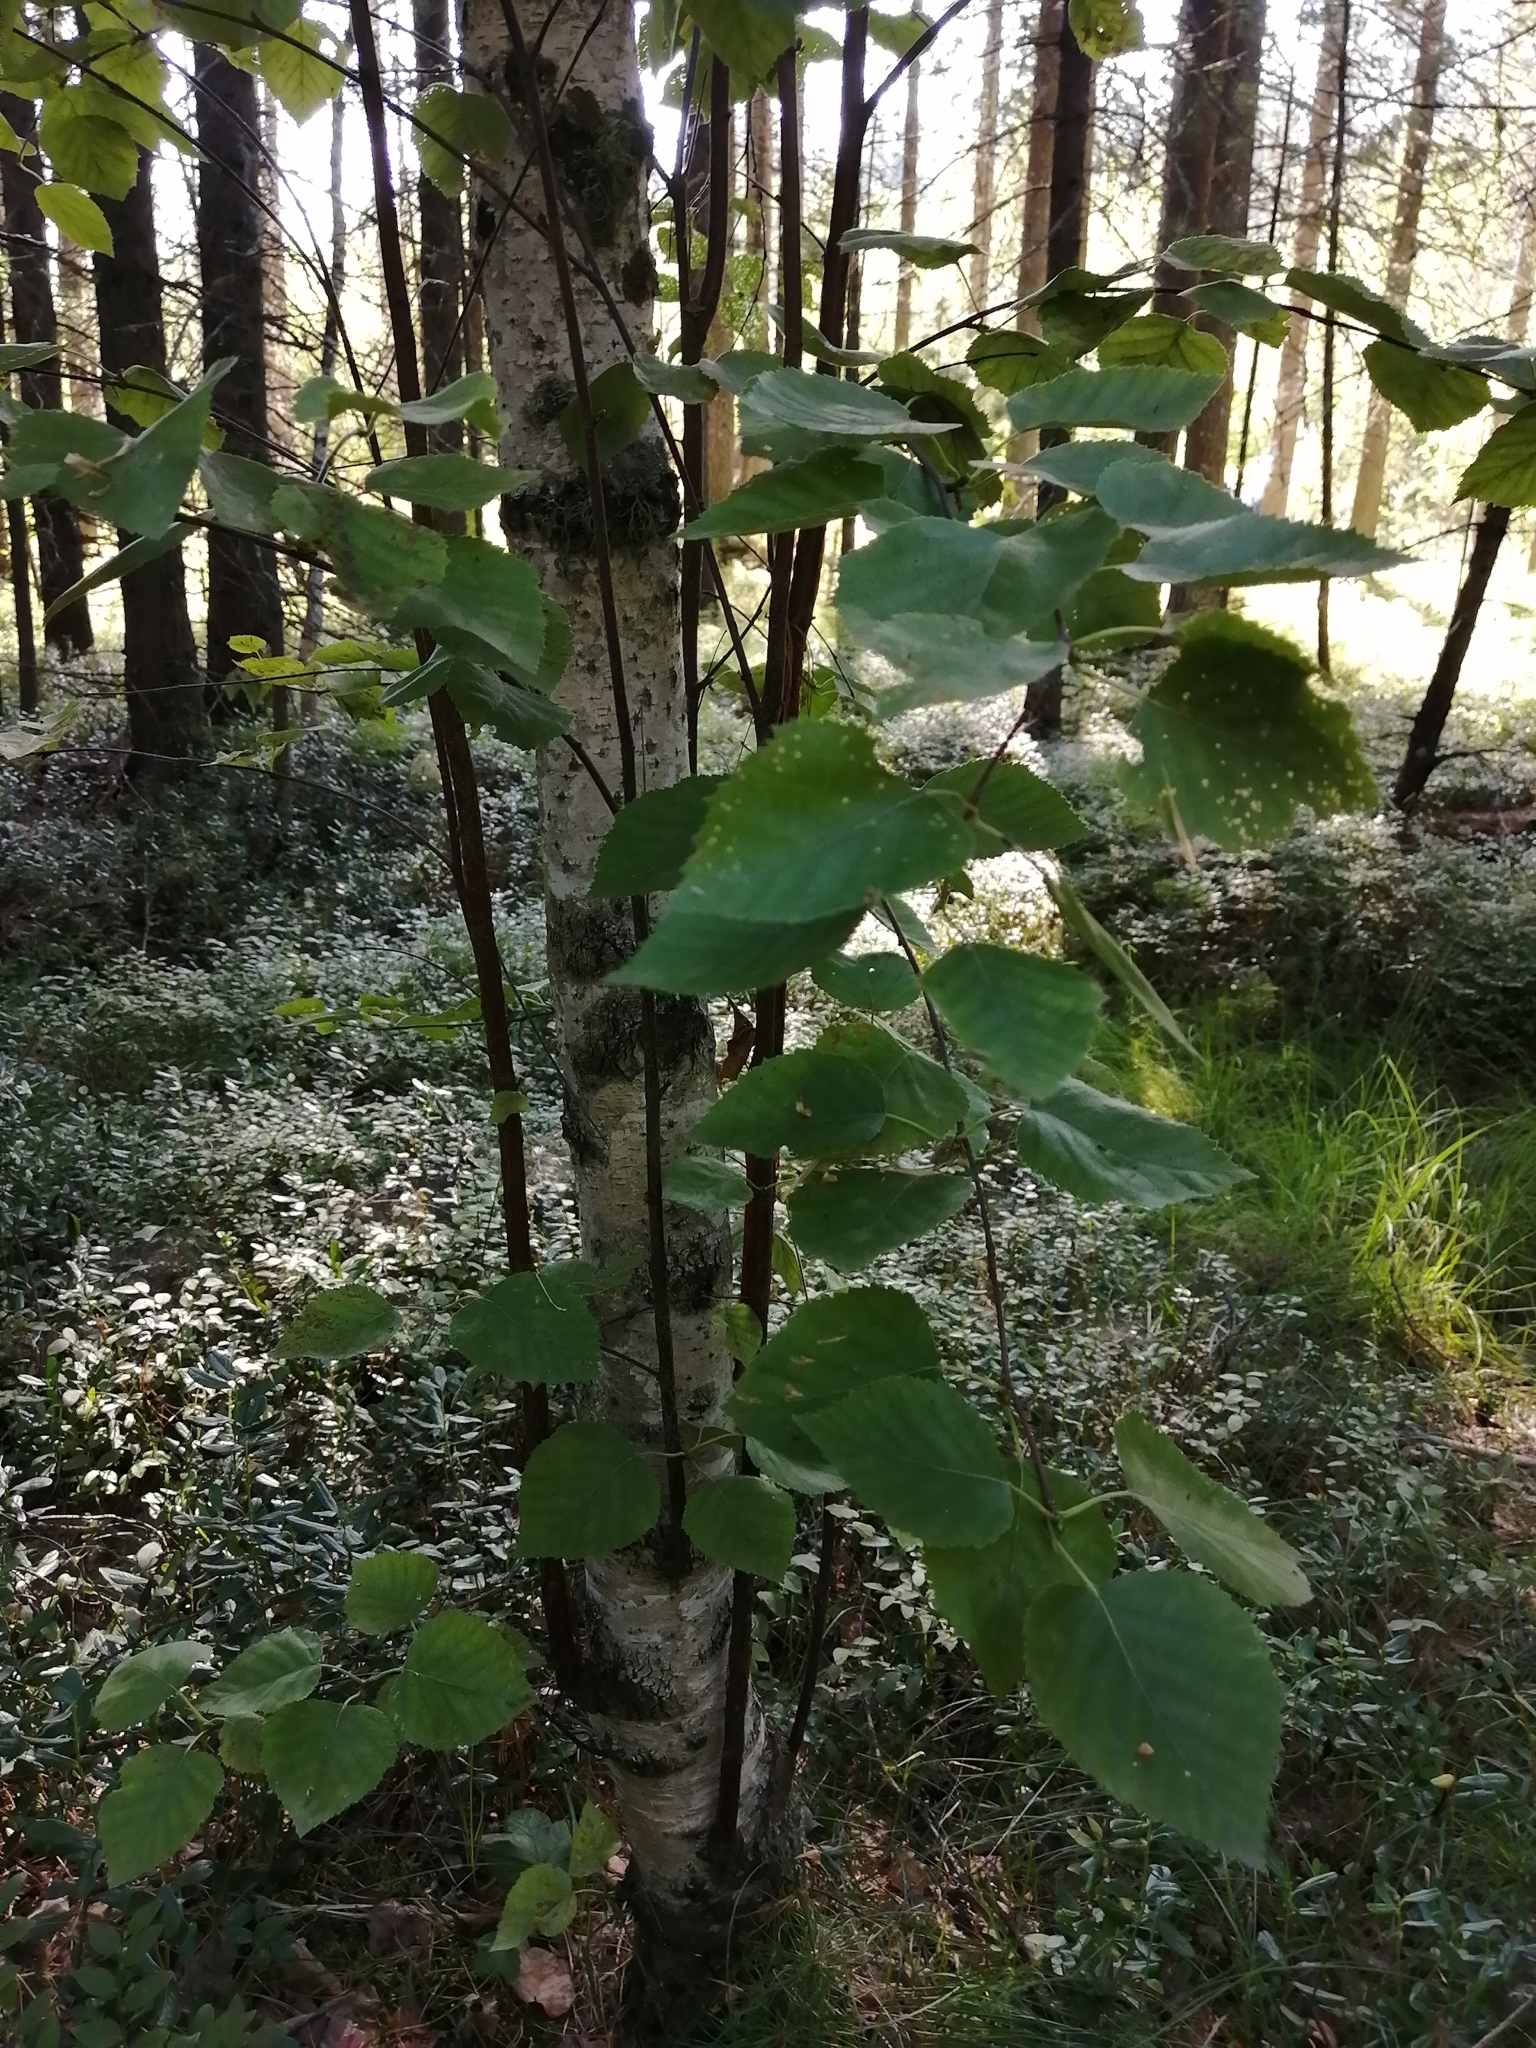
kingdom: Plantae
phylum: Tracheophyta
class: Magnoliopsida
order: Fagales
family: Betulaceae
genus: Betula
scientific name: Betula pubescens
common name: Downy birch
